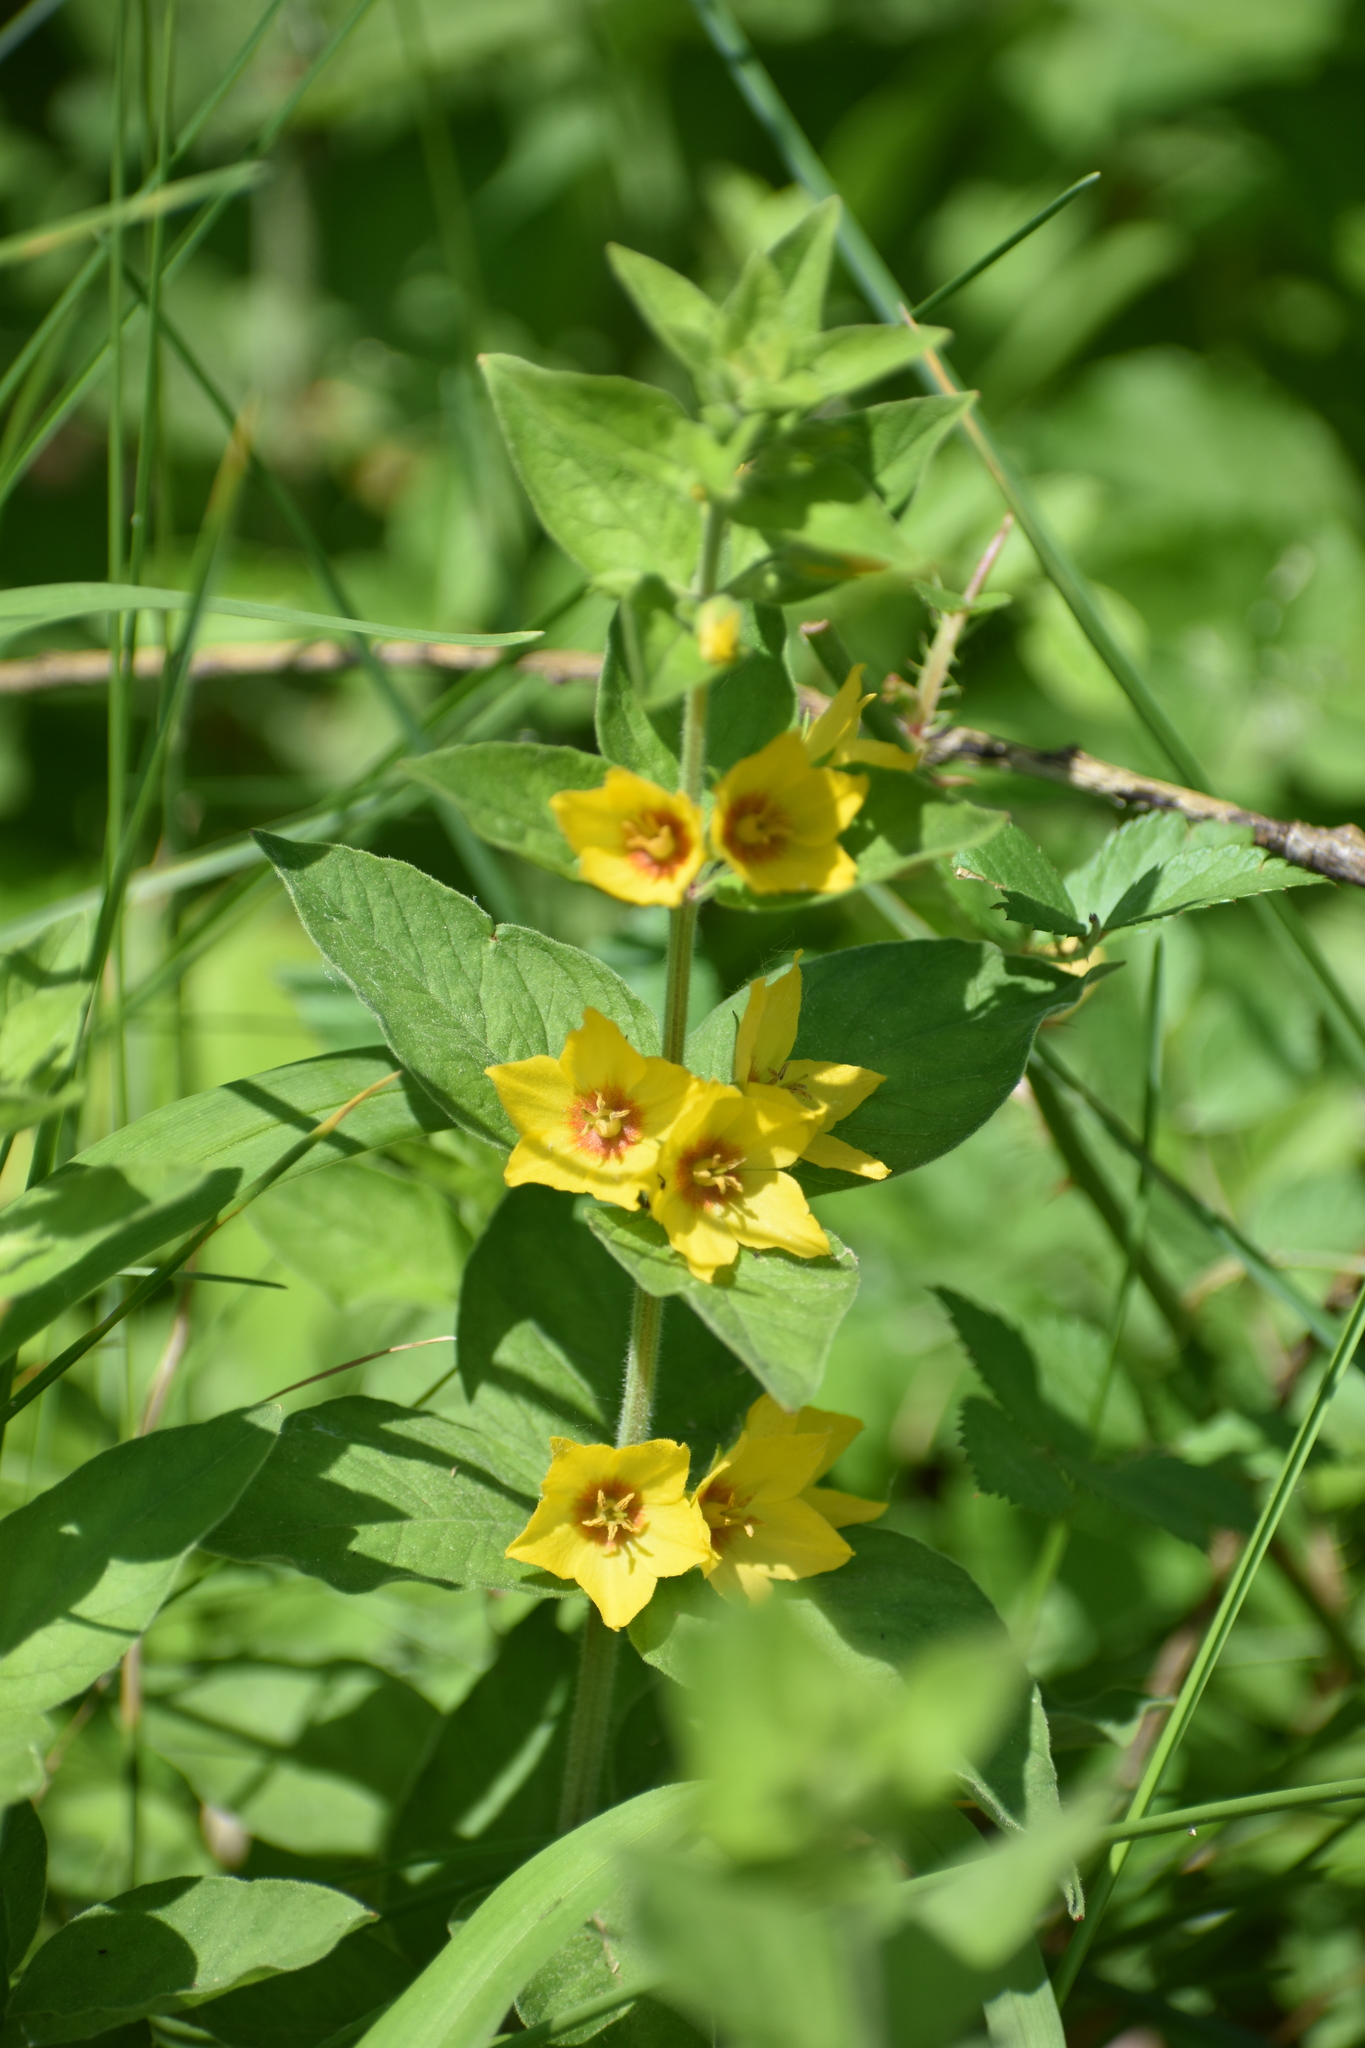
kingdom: Plantae
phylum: Tracheophyta
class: Magnoliopsida
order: Ericales
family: Primulaceae
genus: Lysimachia
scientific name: Lysimachia punctata
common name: Dotted loosestrife
